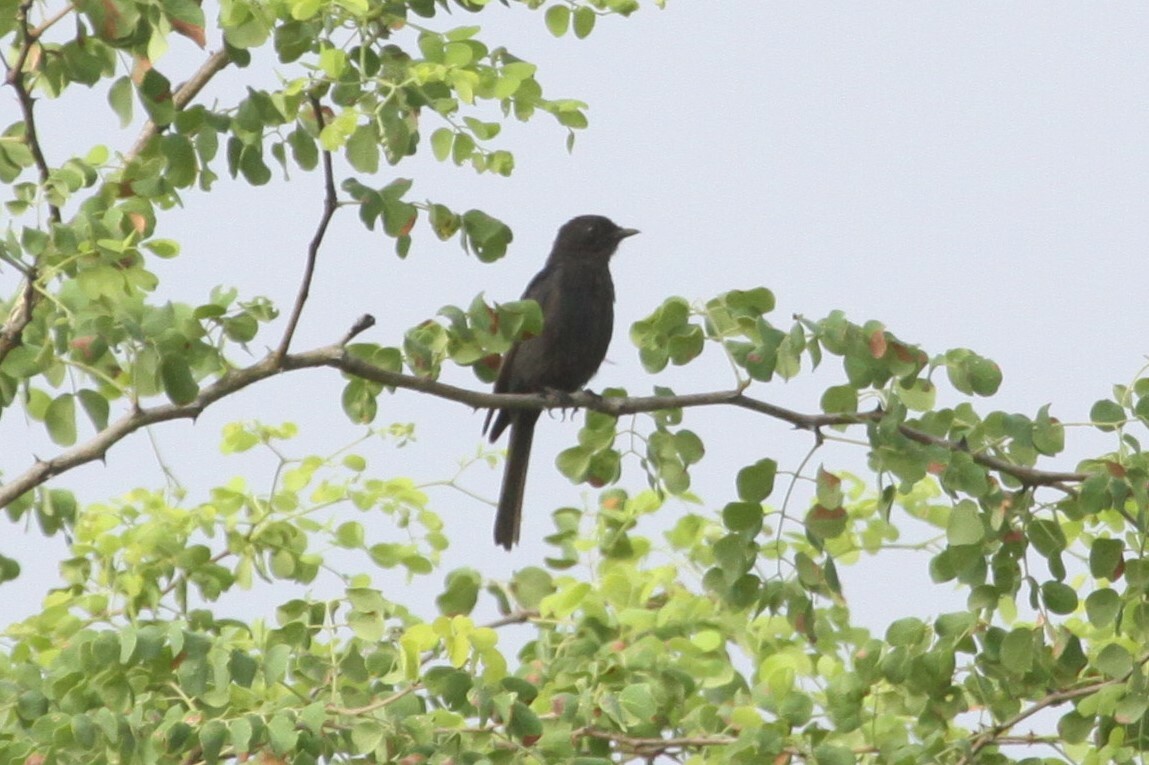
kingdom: Animalia
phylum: Chordata
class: Aves
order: Passeriformes
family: Muscicapidae
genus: Melaenornis
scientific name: Melaenornis pammelaina
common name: Southern black flycatcher
